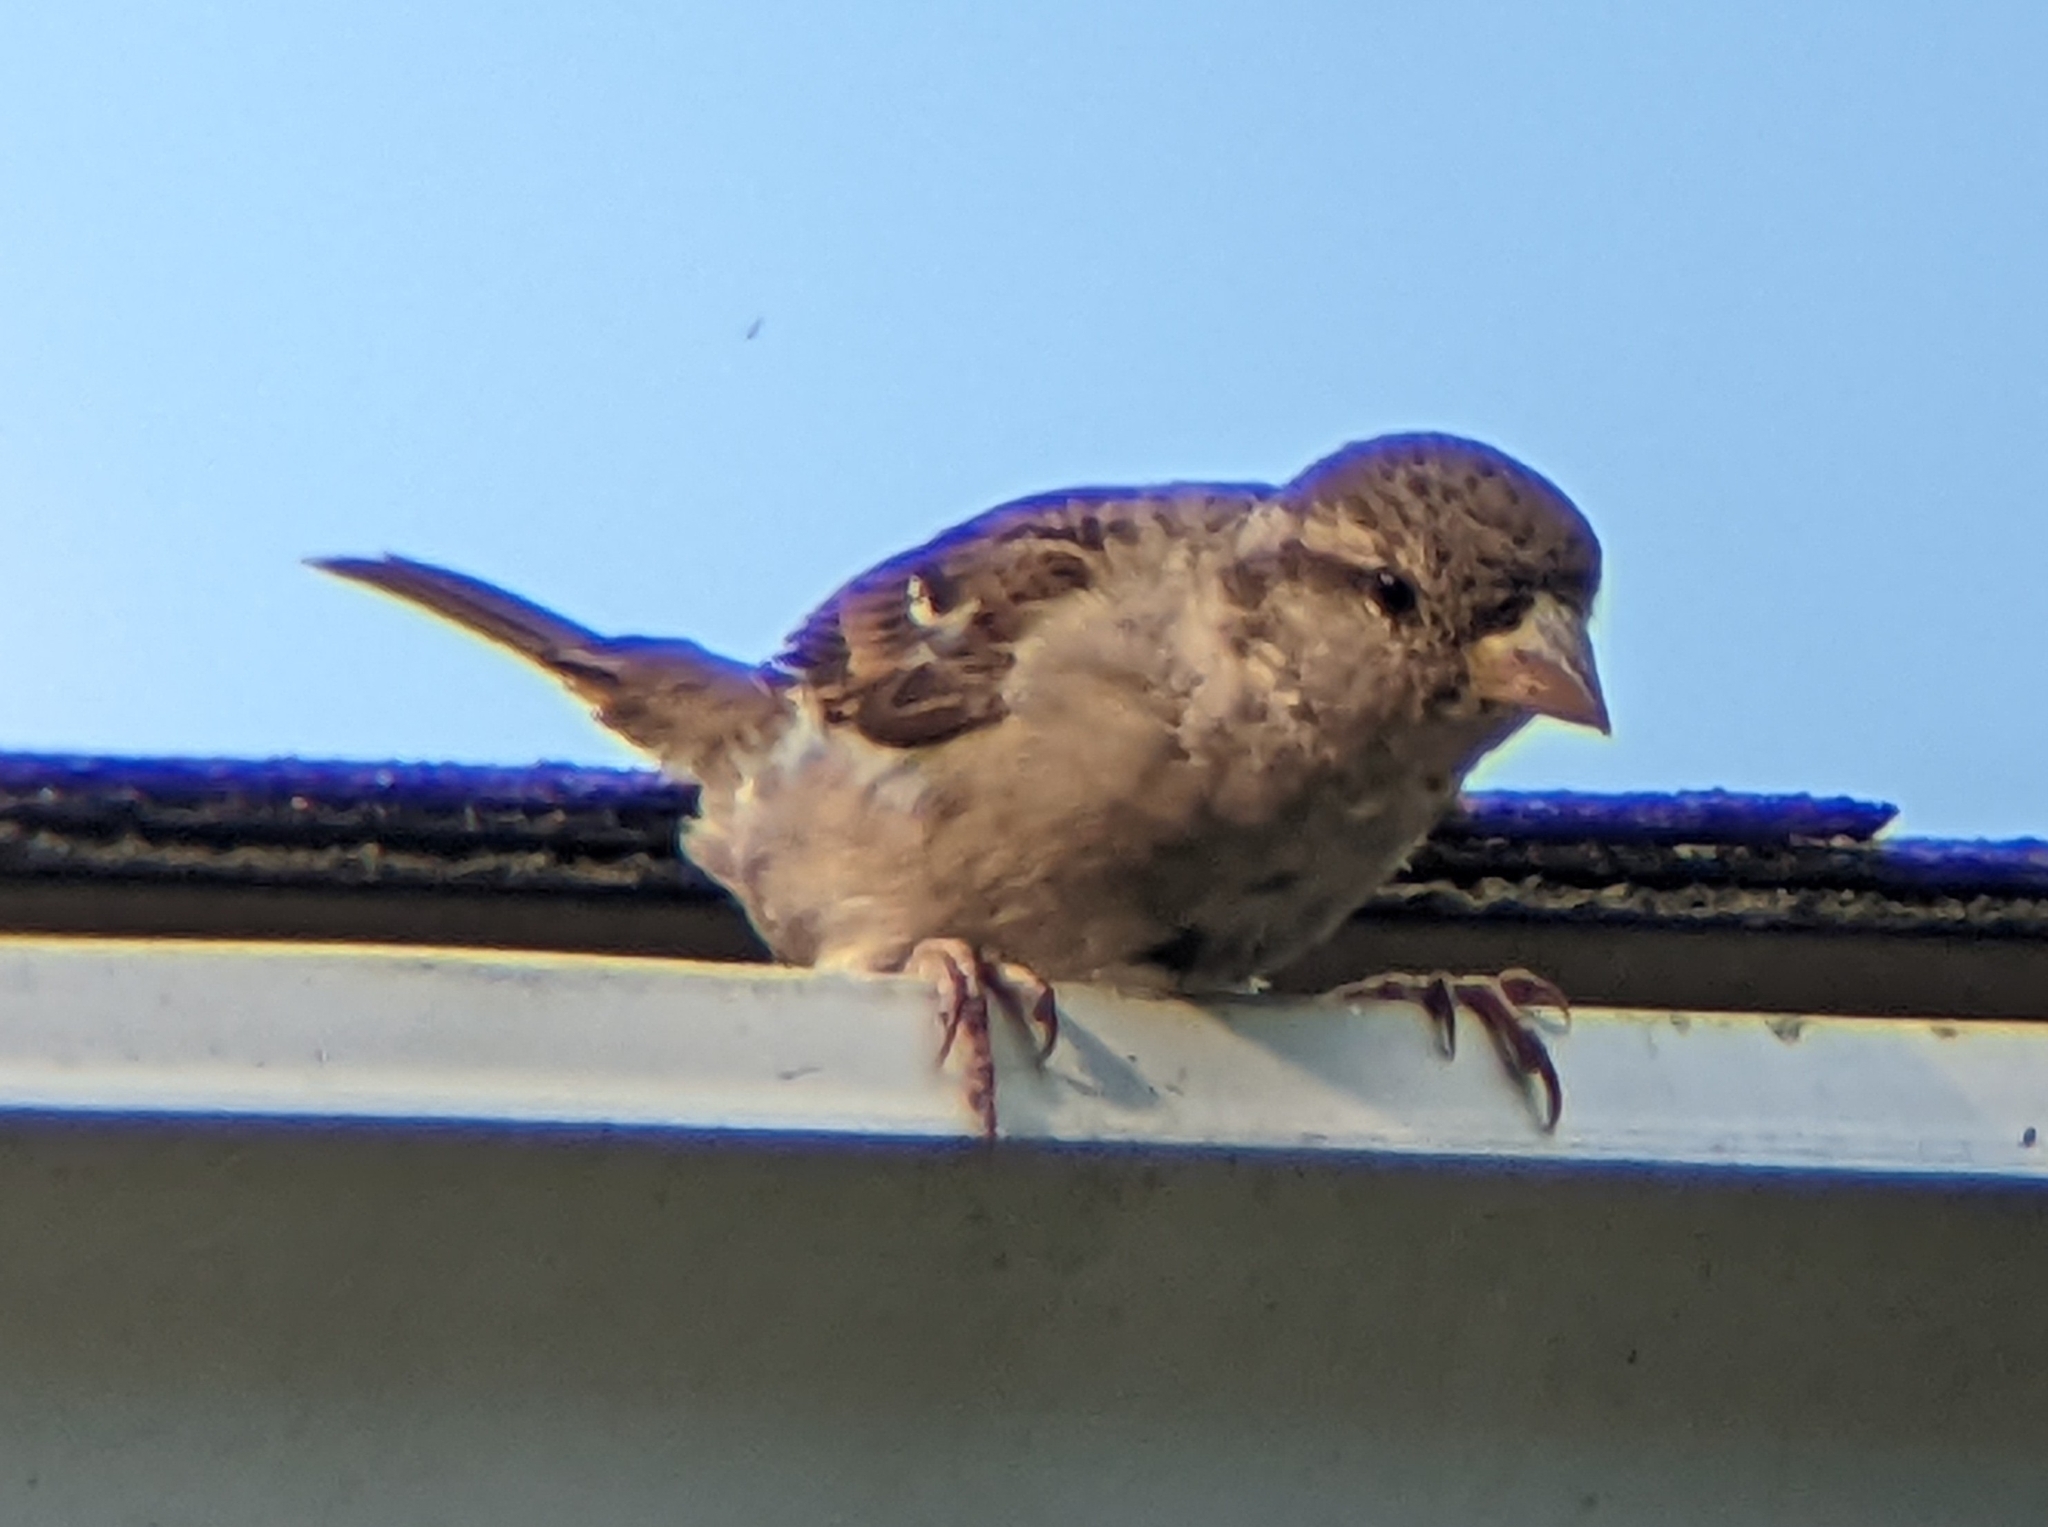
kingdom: Animalia
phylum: Chordata
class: Aves
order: Passeriformes
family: Passeridae
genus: Passer
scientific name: Passer domesticus
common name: House sparrow
